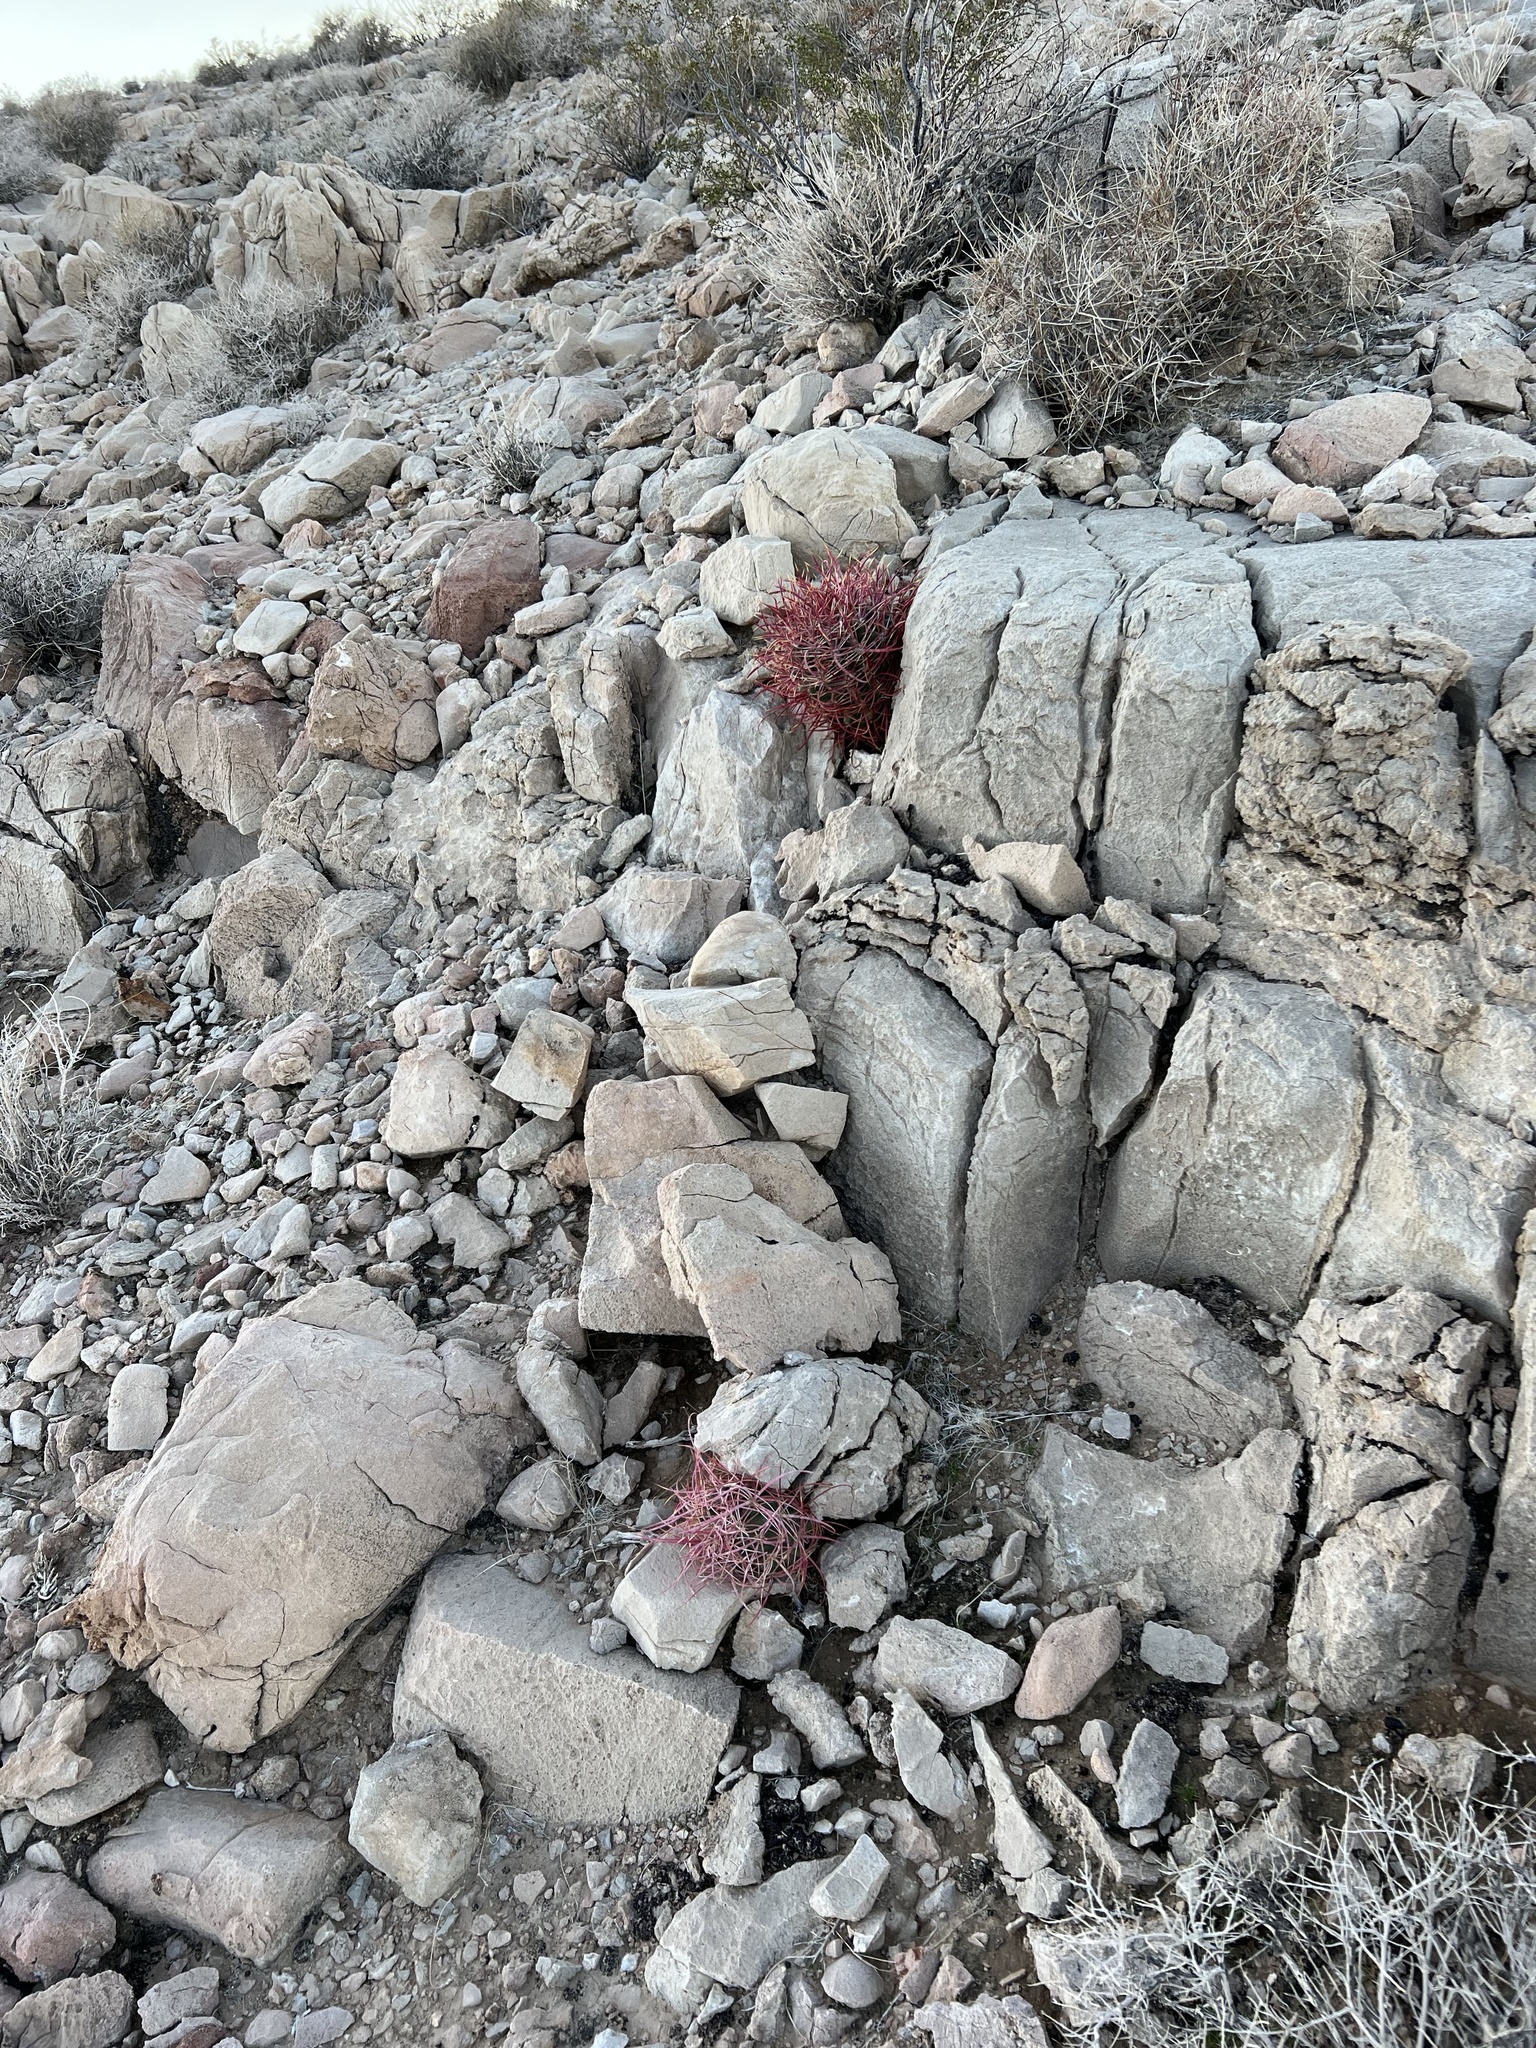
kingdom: Plantae
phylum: Tracheophyta
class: Magnoliopsida
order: Caryophyllales
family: Cactaceae
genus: Ferocactus
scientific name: Ferocactus cylindraceus
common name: California barrel cactus
